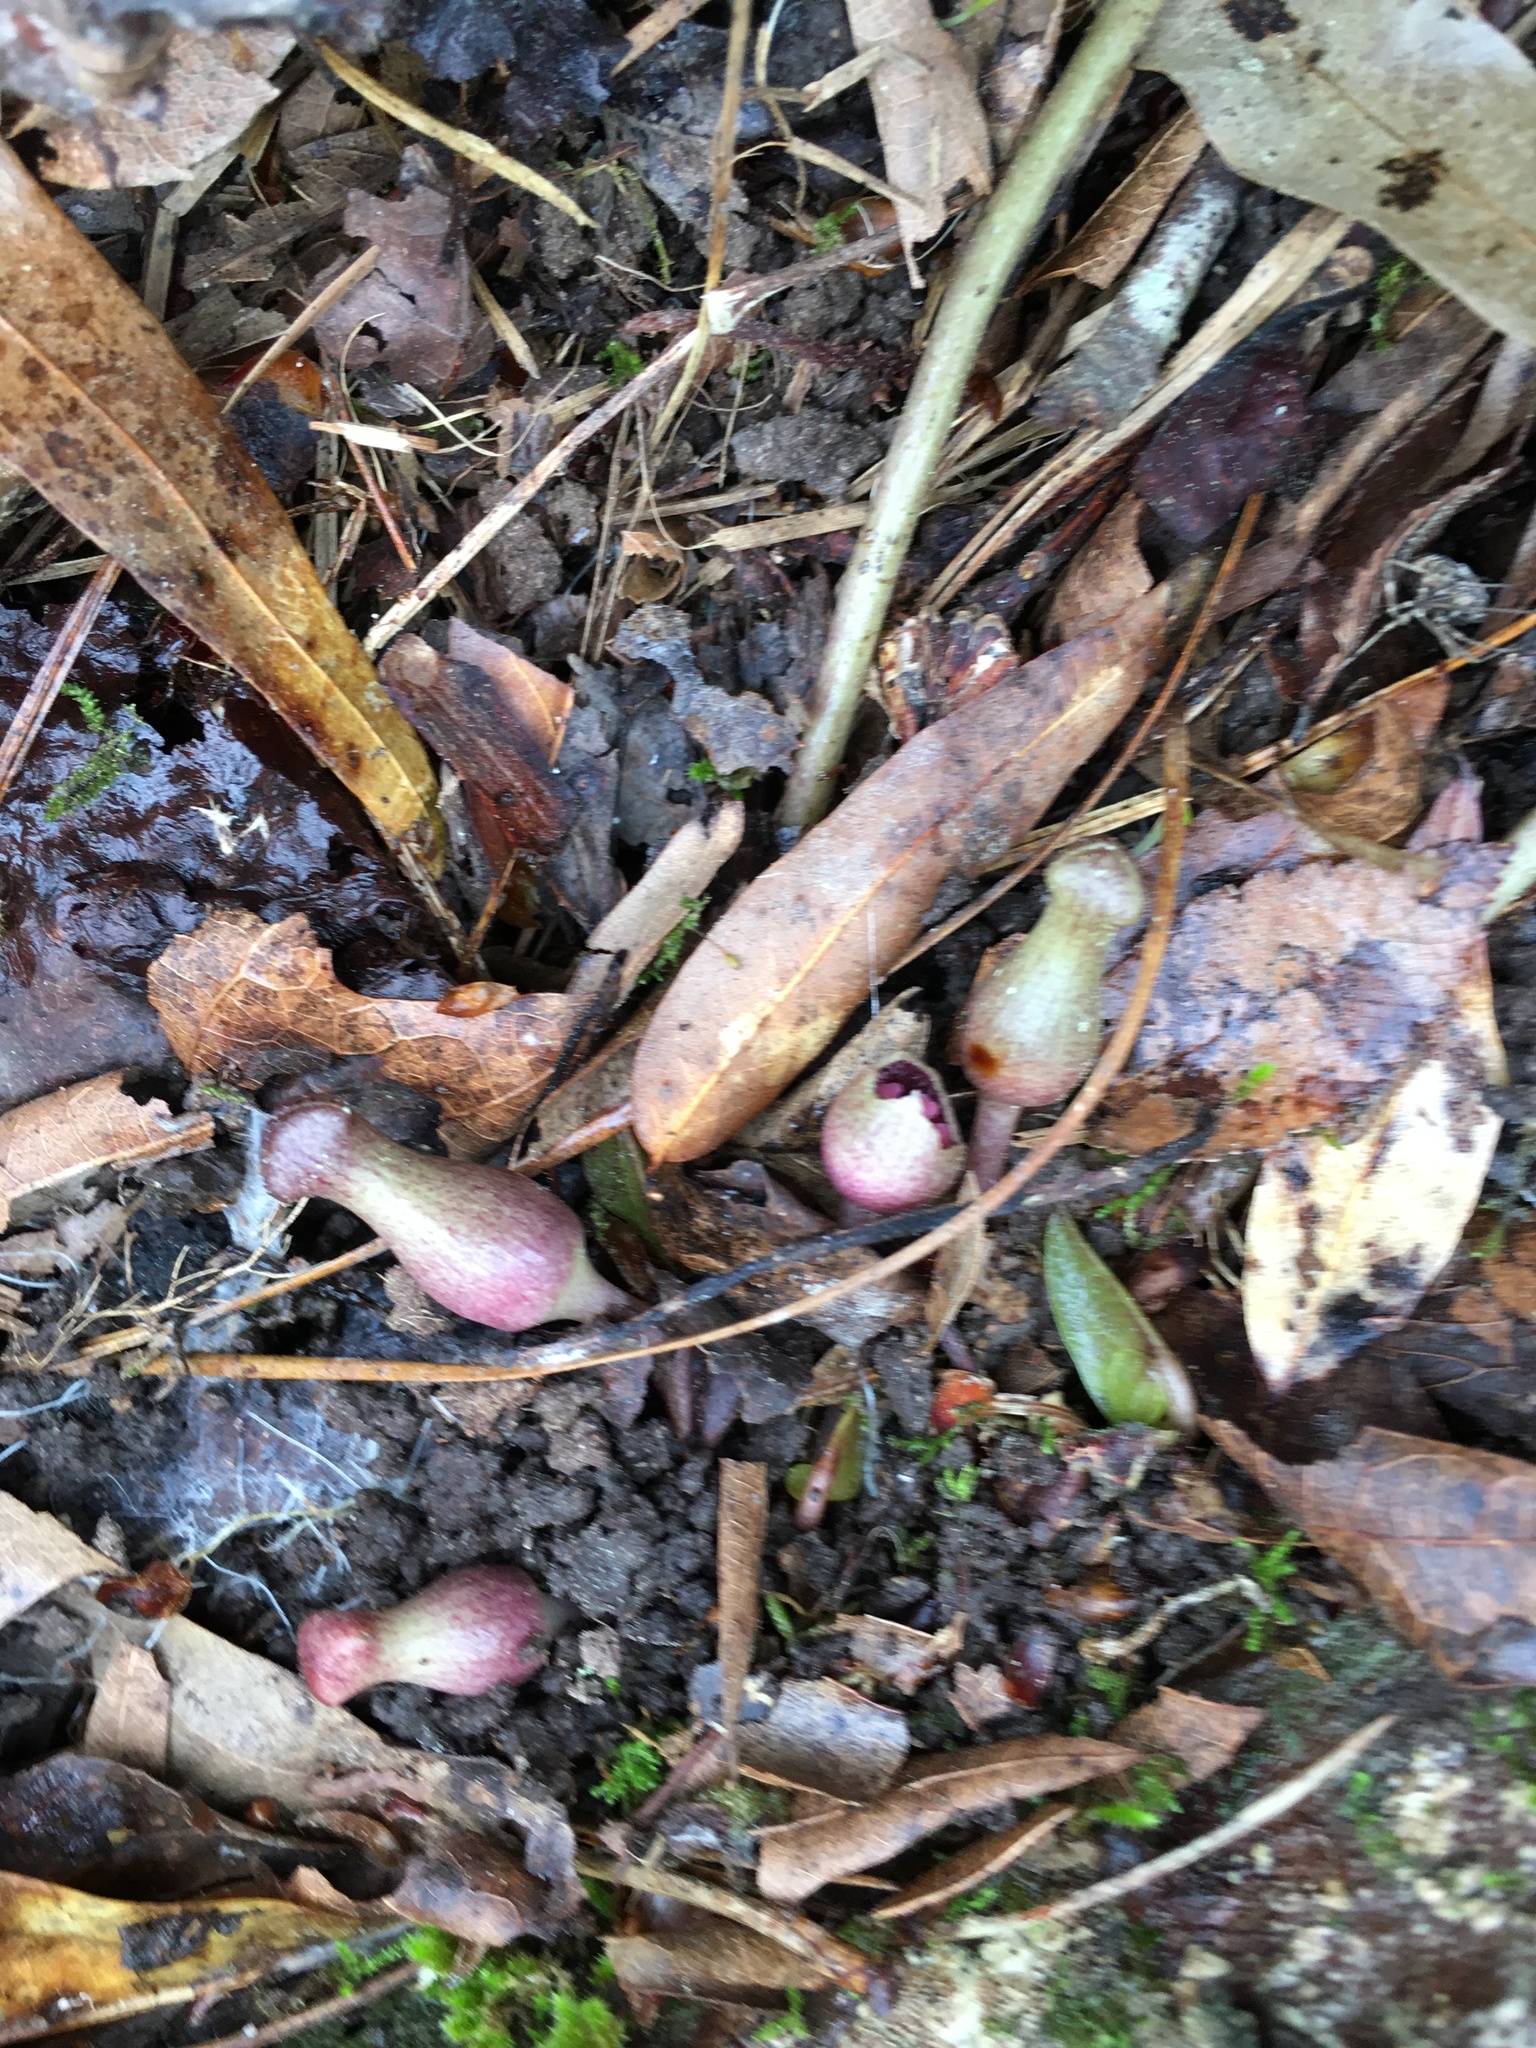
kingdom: Plantae
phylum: Tracheophyta
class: Magnoliopsida
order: Piperales
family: Aristolochiaceae
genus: Hexastylis
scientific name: Hexastylis arifolia
